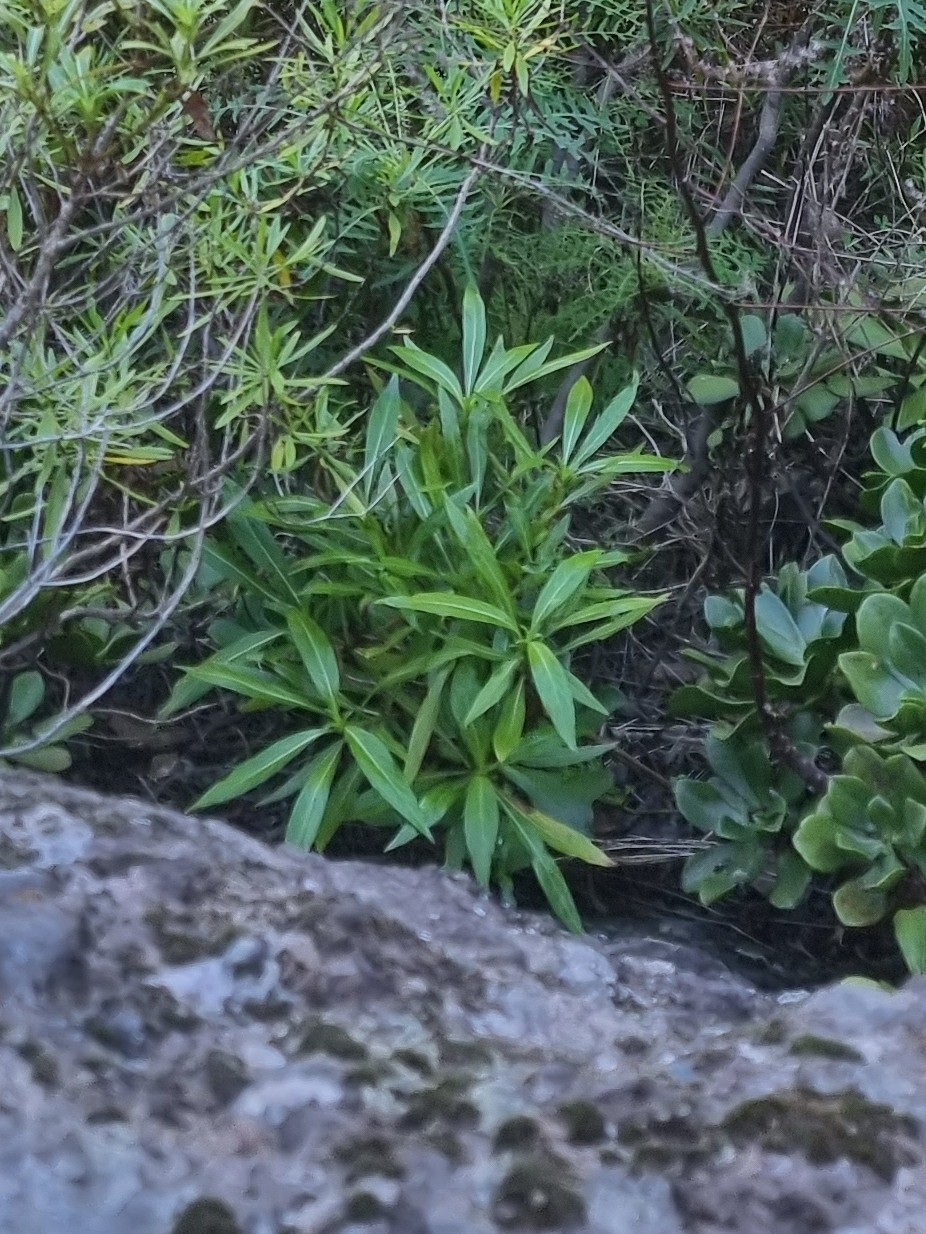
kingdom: Plantae
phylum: Tracheophyta
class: Magnoliopsida
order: Gentianales
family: Rubiaceae
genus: Phyllis
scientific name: Phyllis nobla
